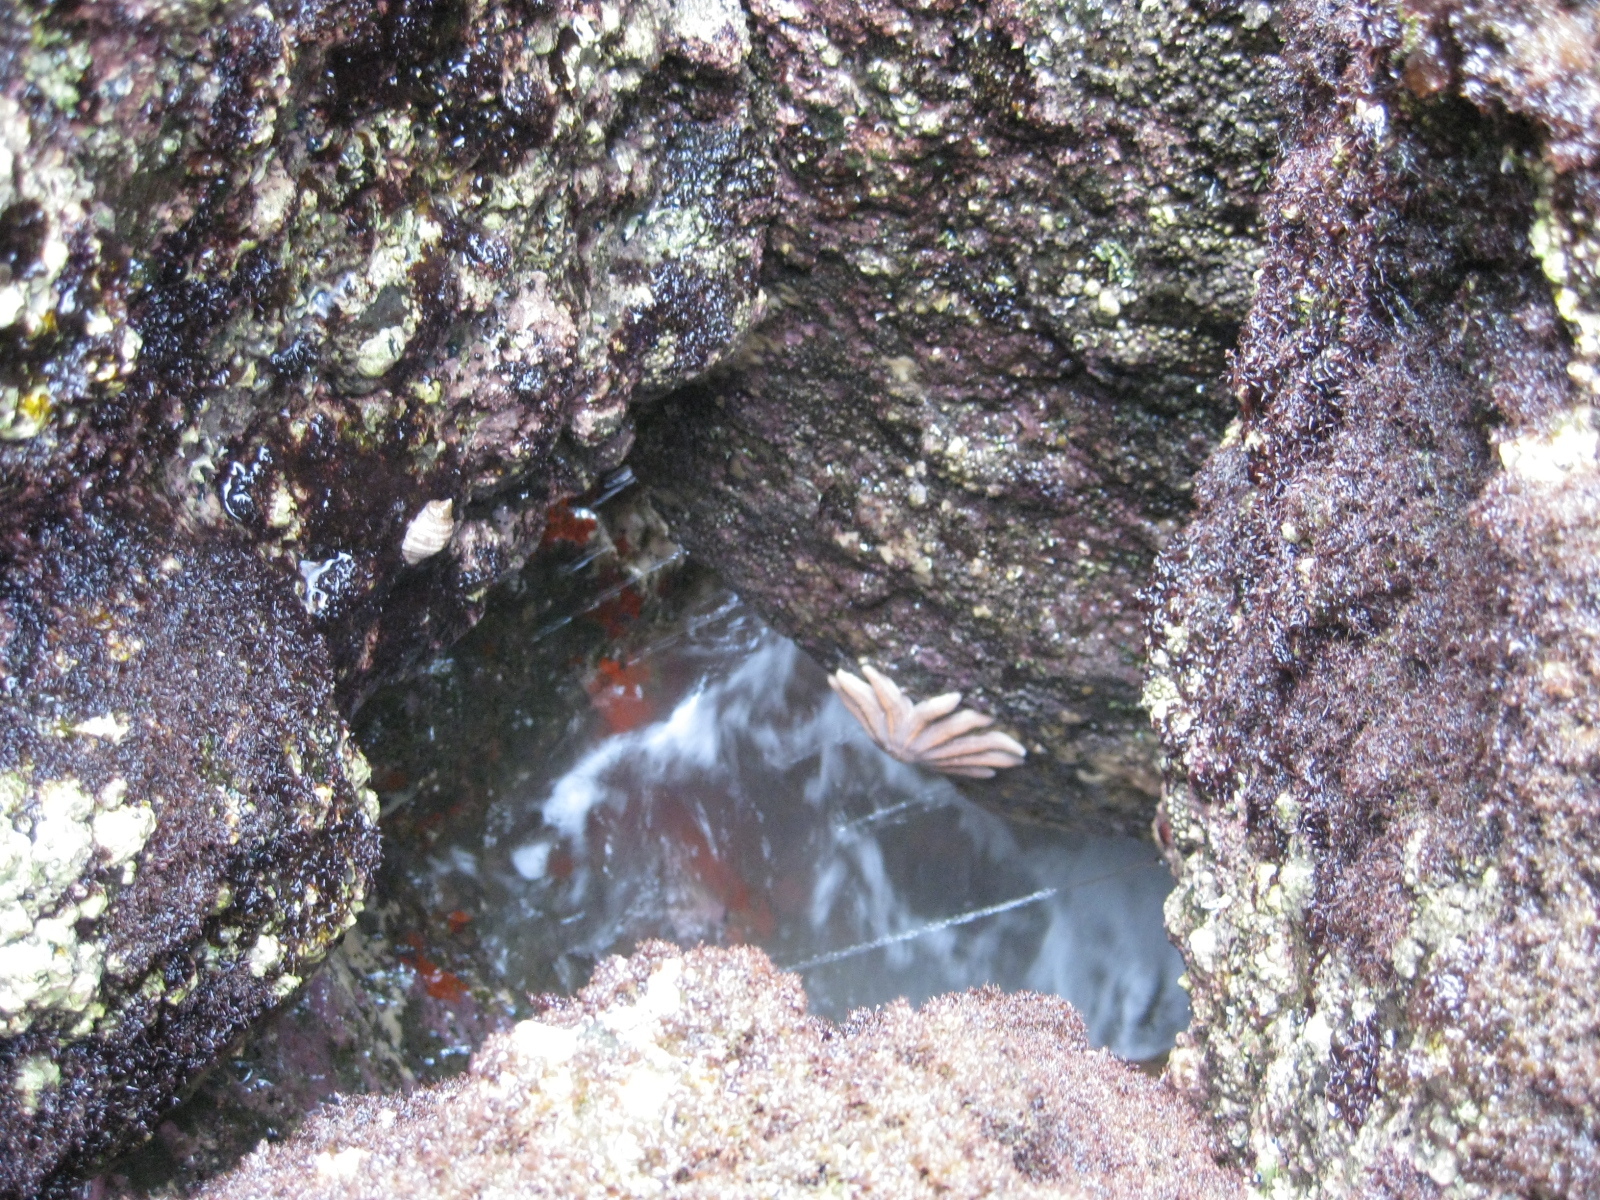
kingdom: Animalia
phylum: Echinodermata
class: Asteroidea
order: Forcipulatida
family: Stichasteridae
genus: Stichaster
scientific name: Stichaster australis
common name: Reef starfish
